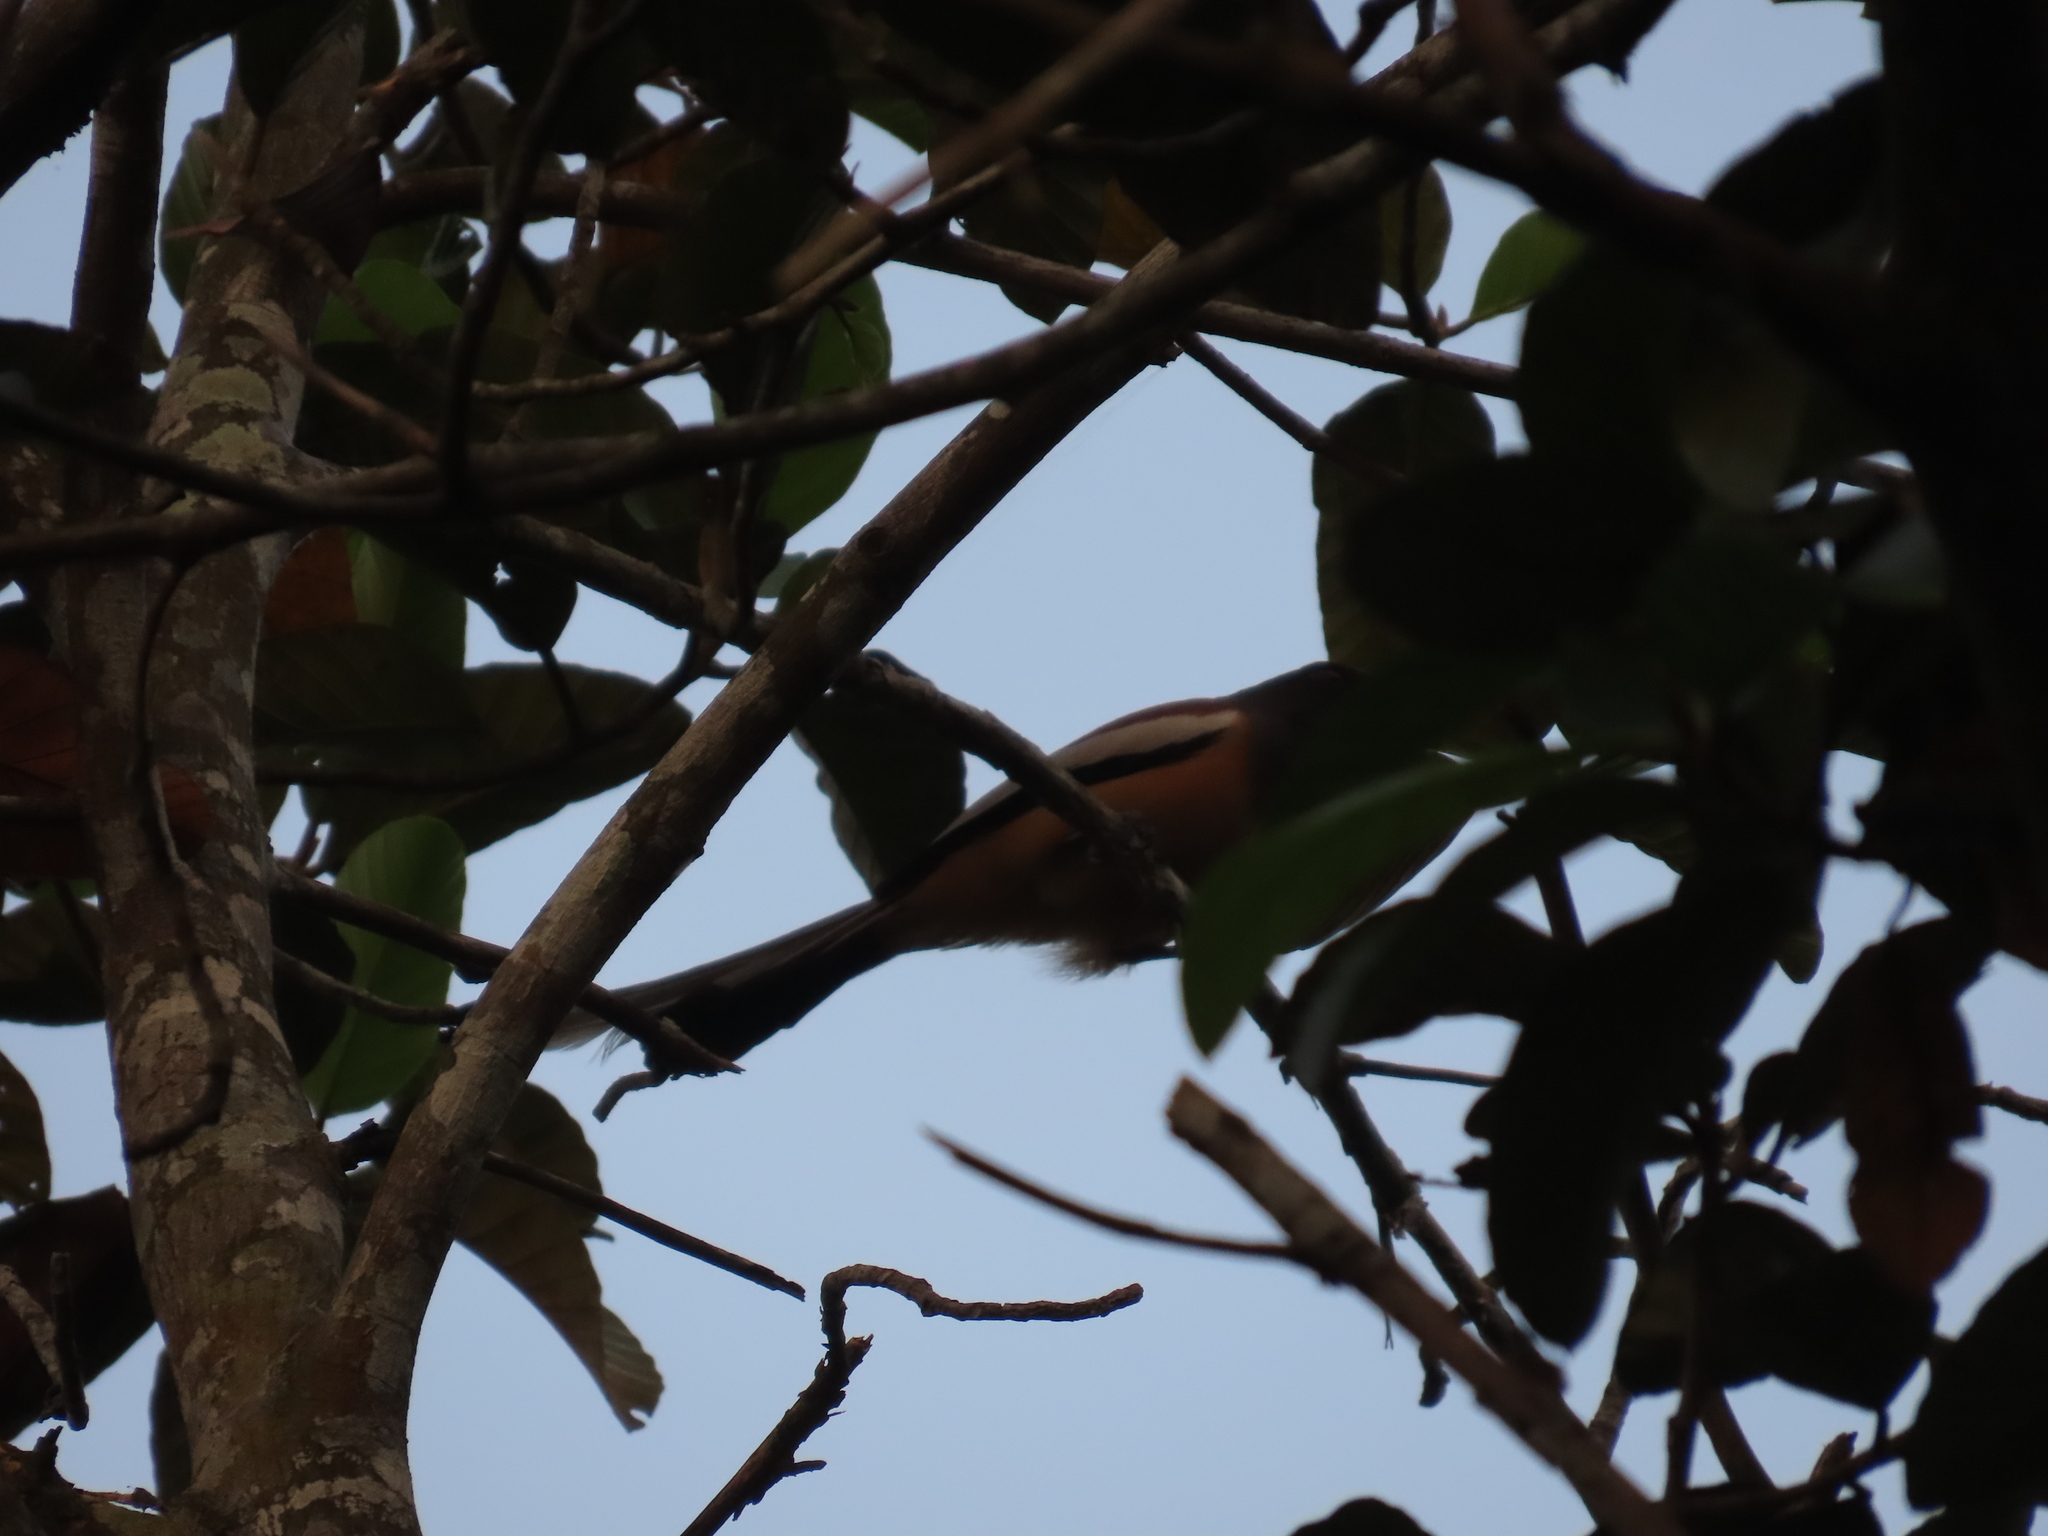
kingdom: Animalia
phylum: Chordata
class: Aves
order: Passeriformes
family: Corvidae
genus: Dendrocitta
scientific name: Dendrocitta vagabunda
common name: Rufous treepie
